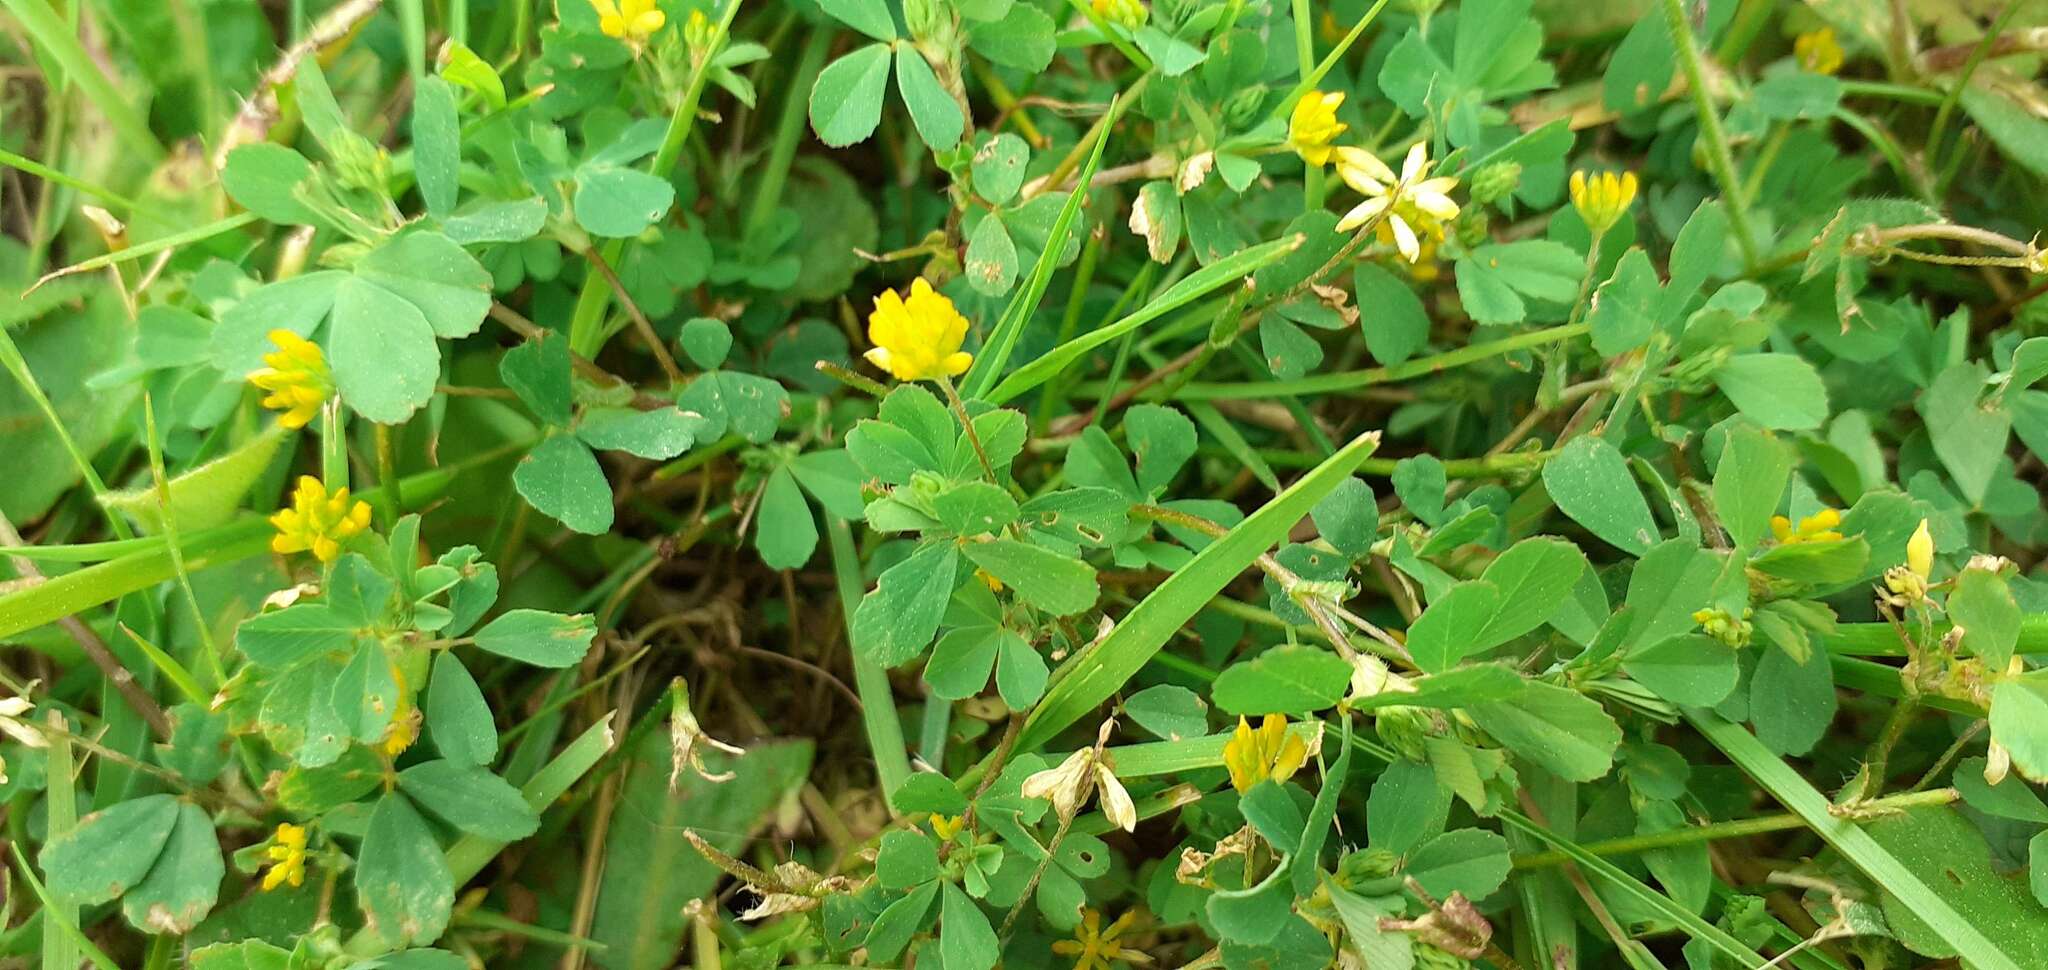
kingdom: Plantae
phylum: Tracheophyta
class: Magnoliopsida
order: Fabales
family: Fabaceae
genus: Trifolium
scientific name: Trifolium dubium
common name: Suckling clover
